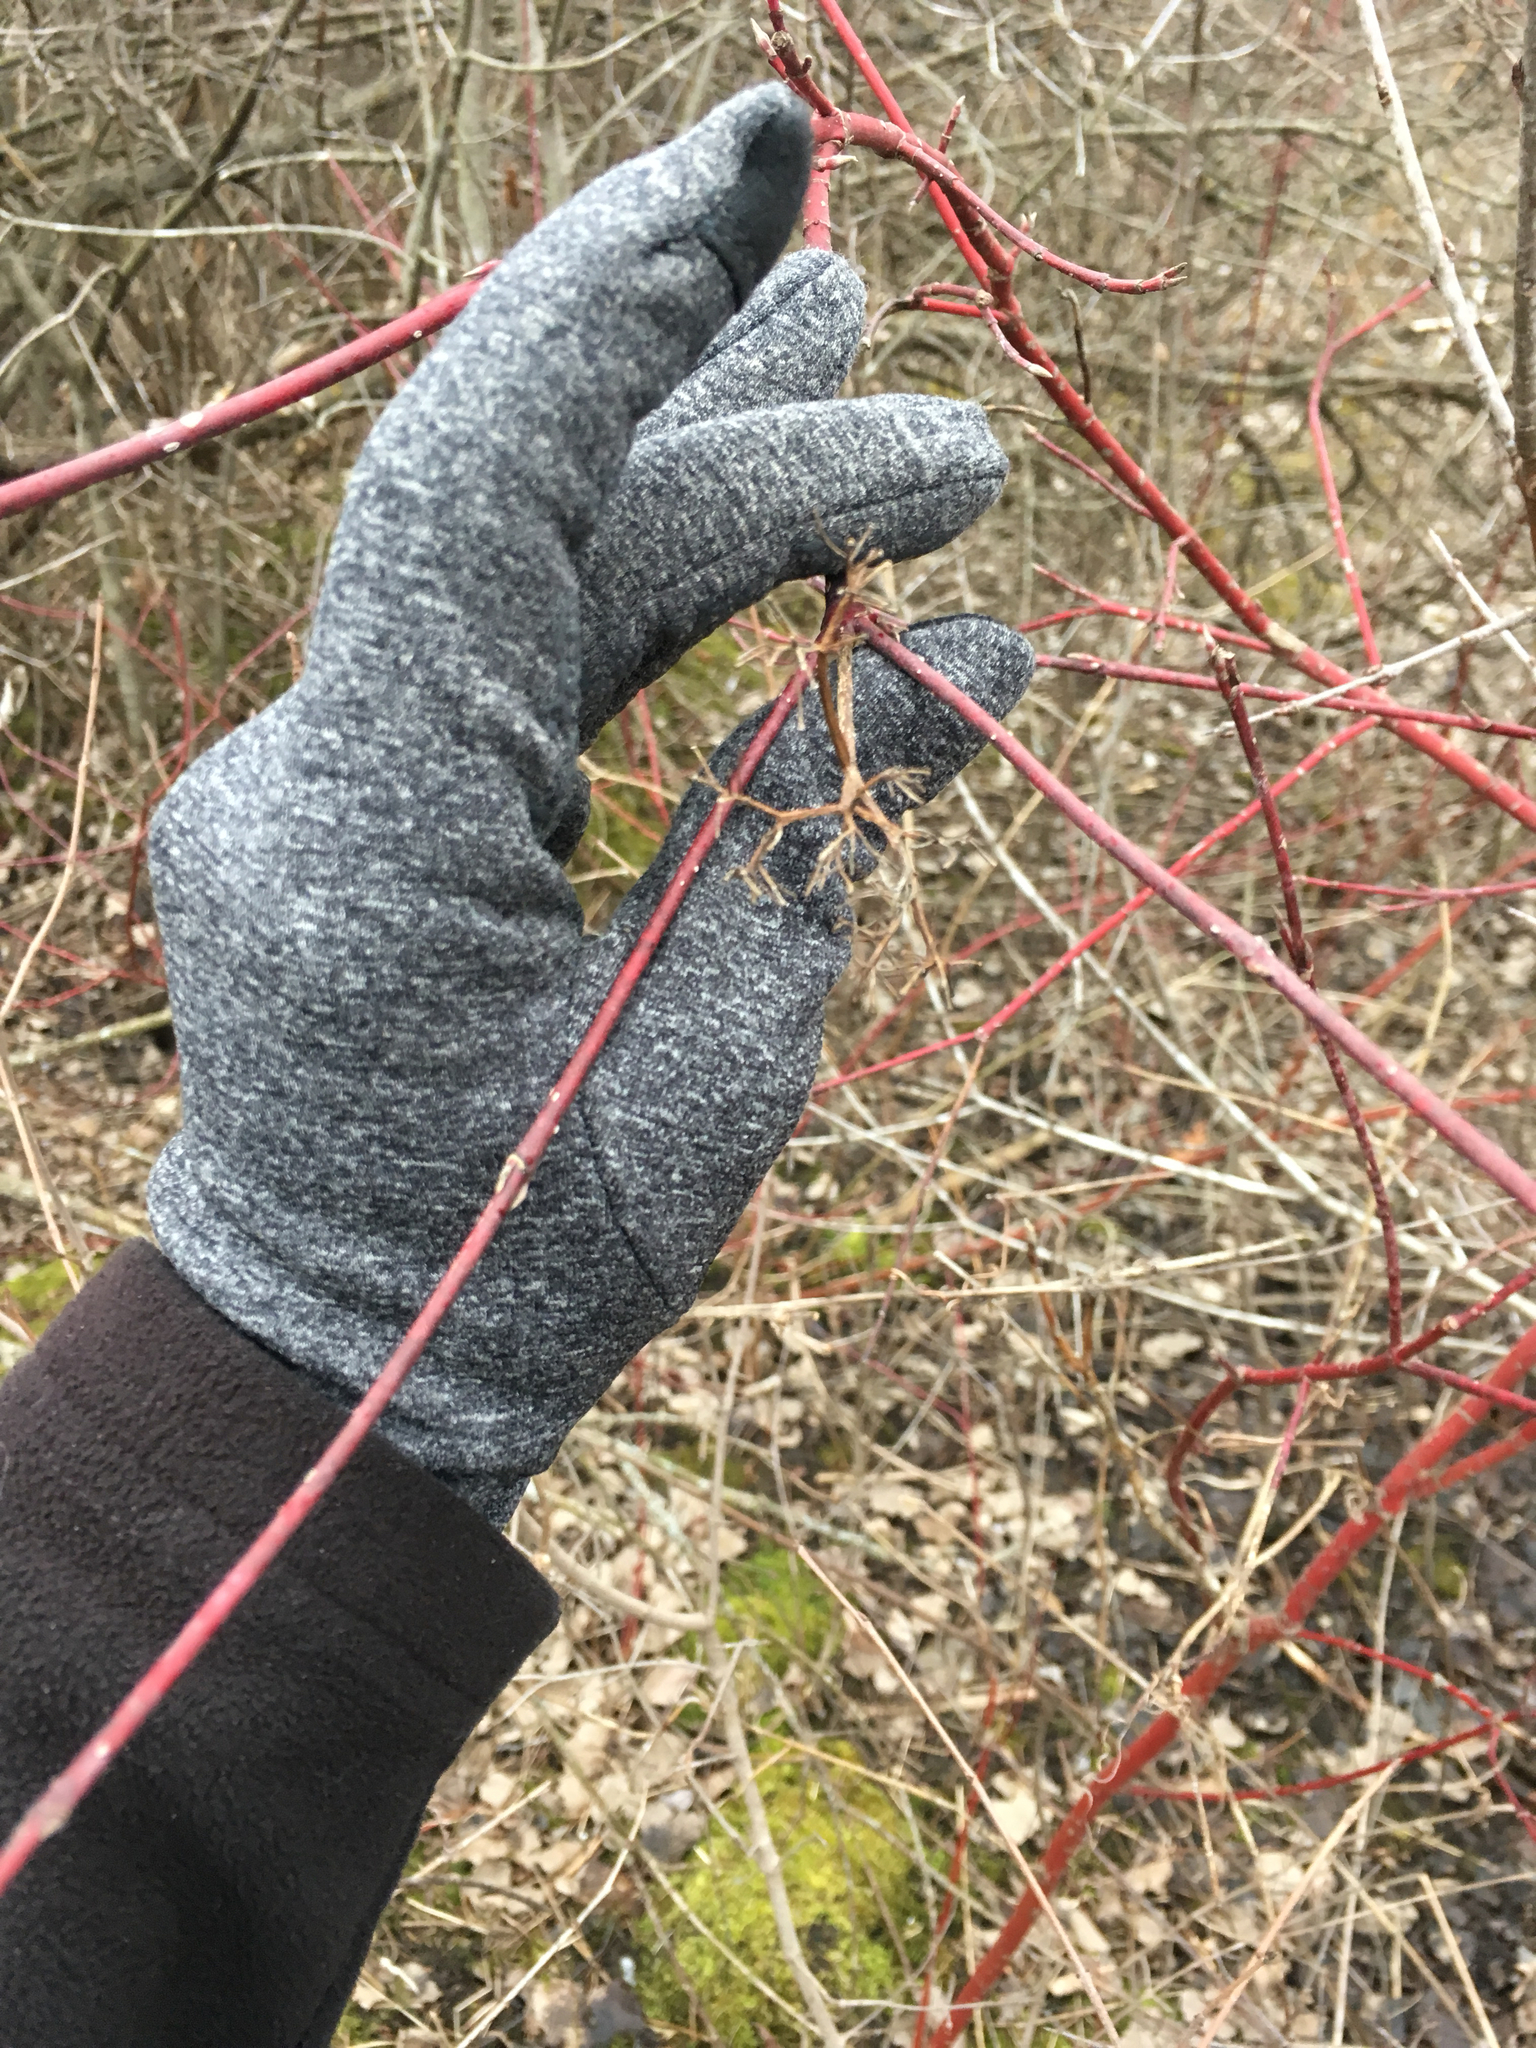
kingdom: Plantae
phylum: Tracheophyta
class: Magnoliopsida
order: Cornales
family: Cornaceae
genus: Cornus
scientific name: Cornus sericea
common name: Red-osier dogwood
